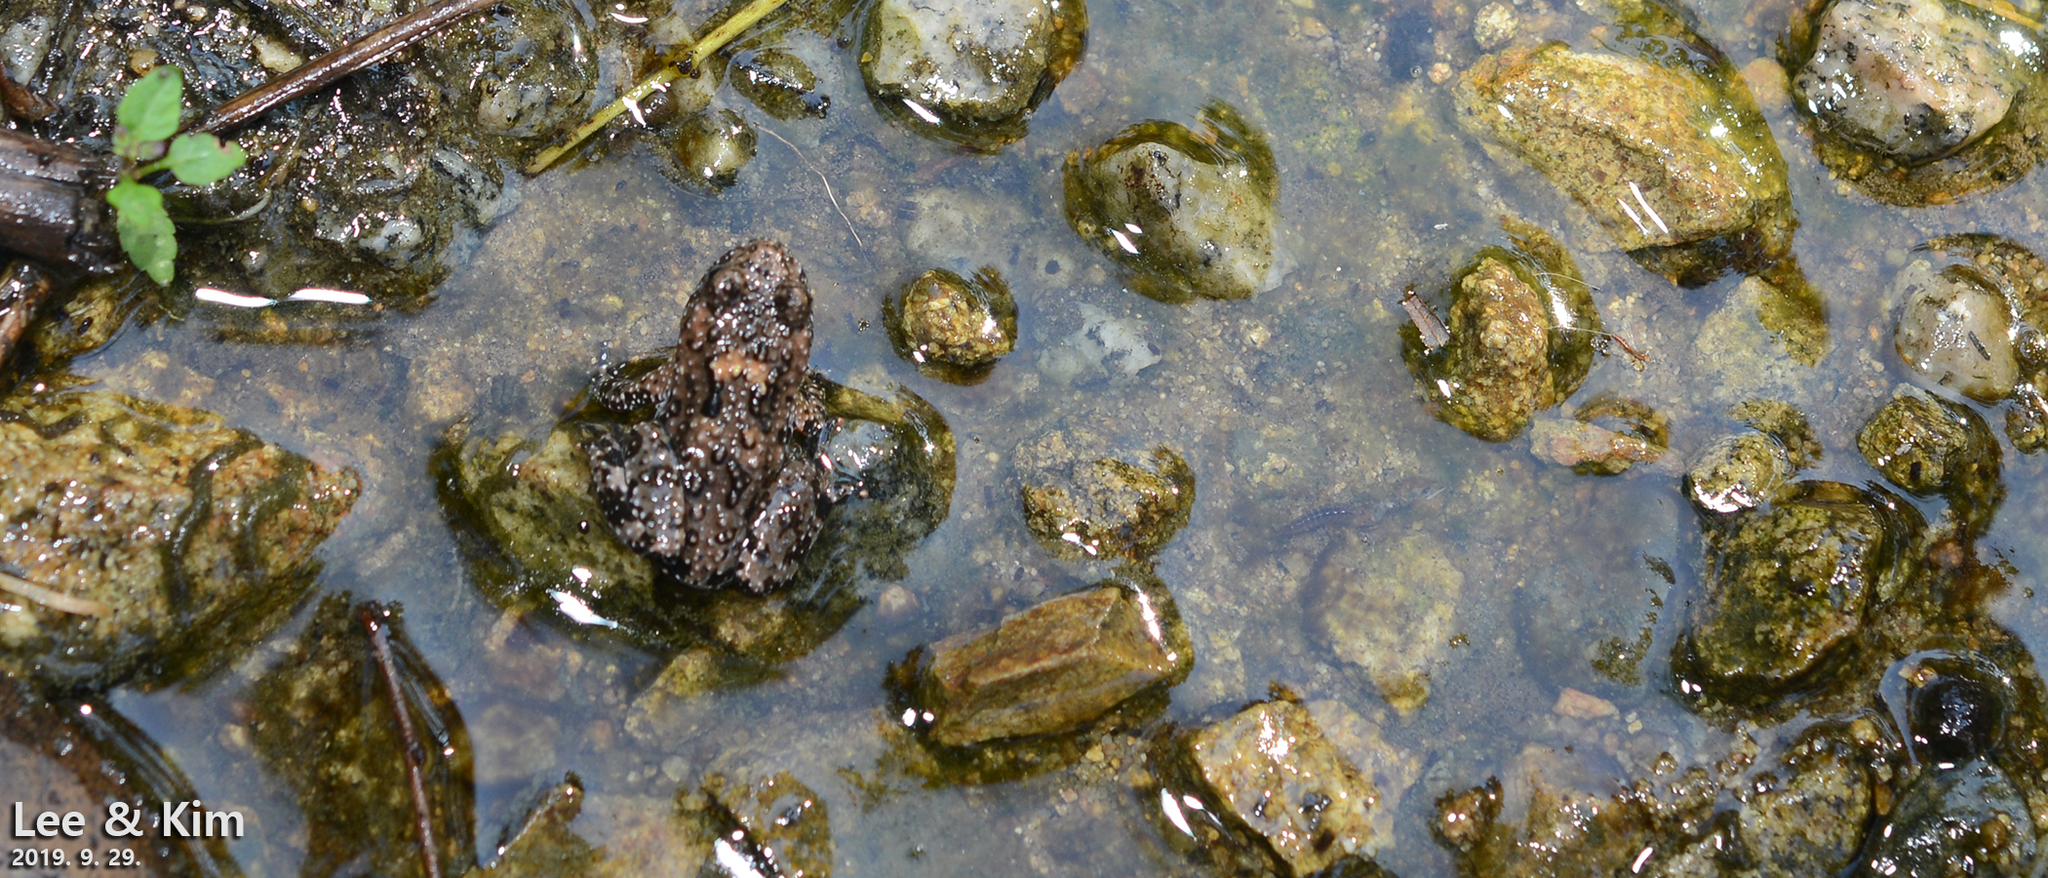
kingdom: Animalia
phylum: Chordata
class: Amphibia
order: Anura
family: Bombinatoridae
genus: Bombina
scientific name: Bombina orientalis
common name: Oriental firebelly toad
